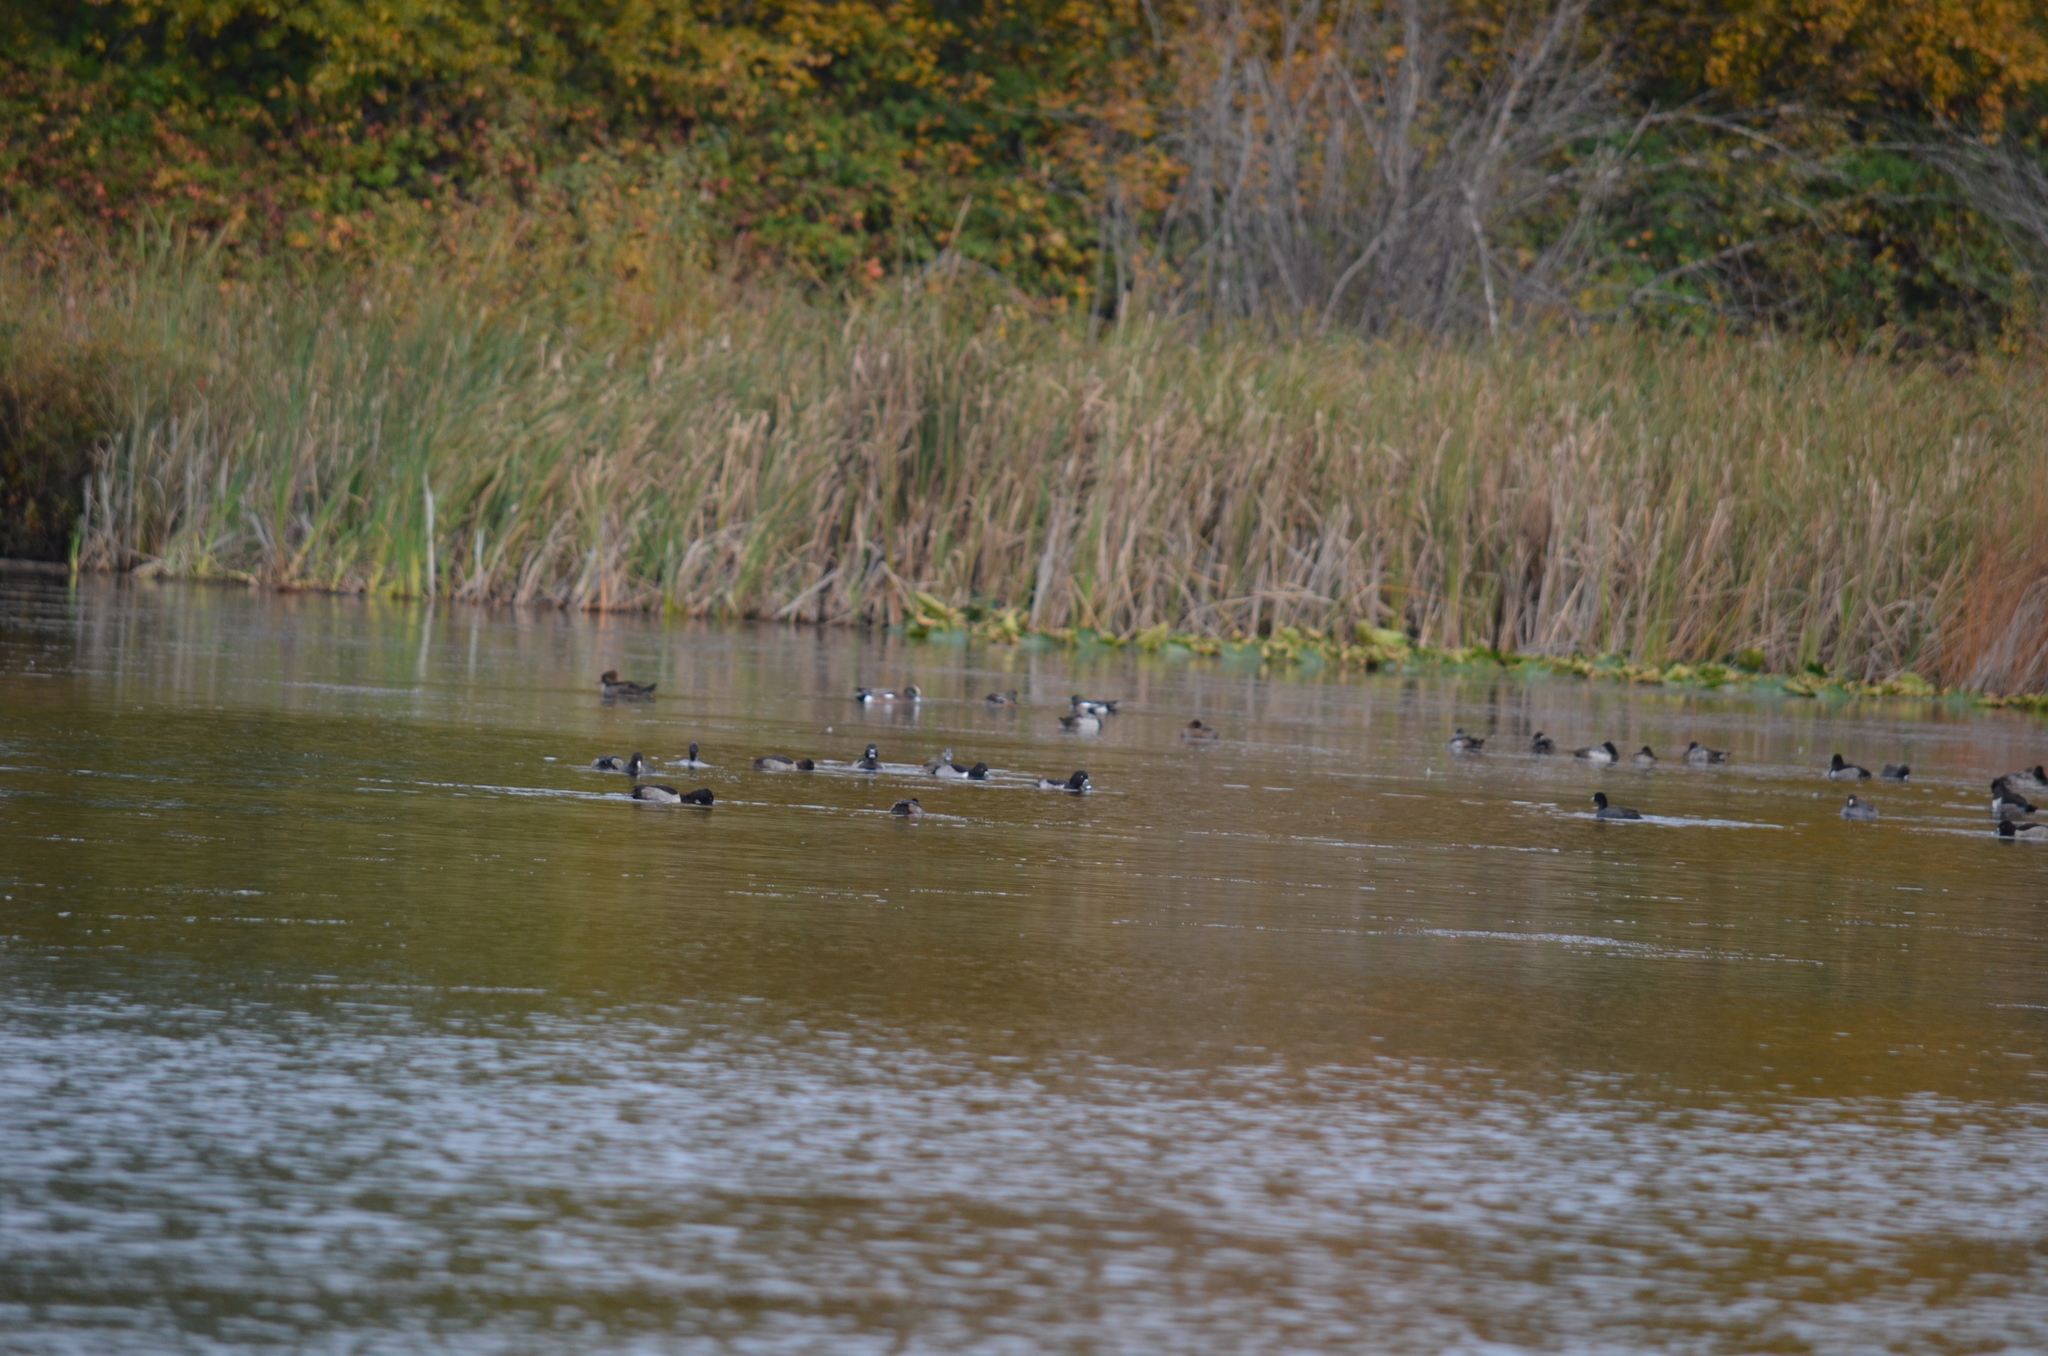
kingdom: Animalia
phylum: Chordata
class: Aves
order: Anseriformes
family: Anatidae
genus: Lophodytes
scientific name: Lophodytes cucullatus
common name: Hooded merganser
